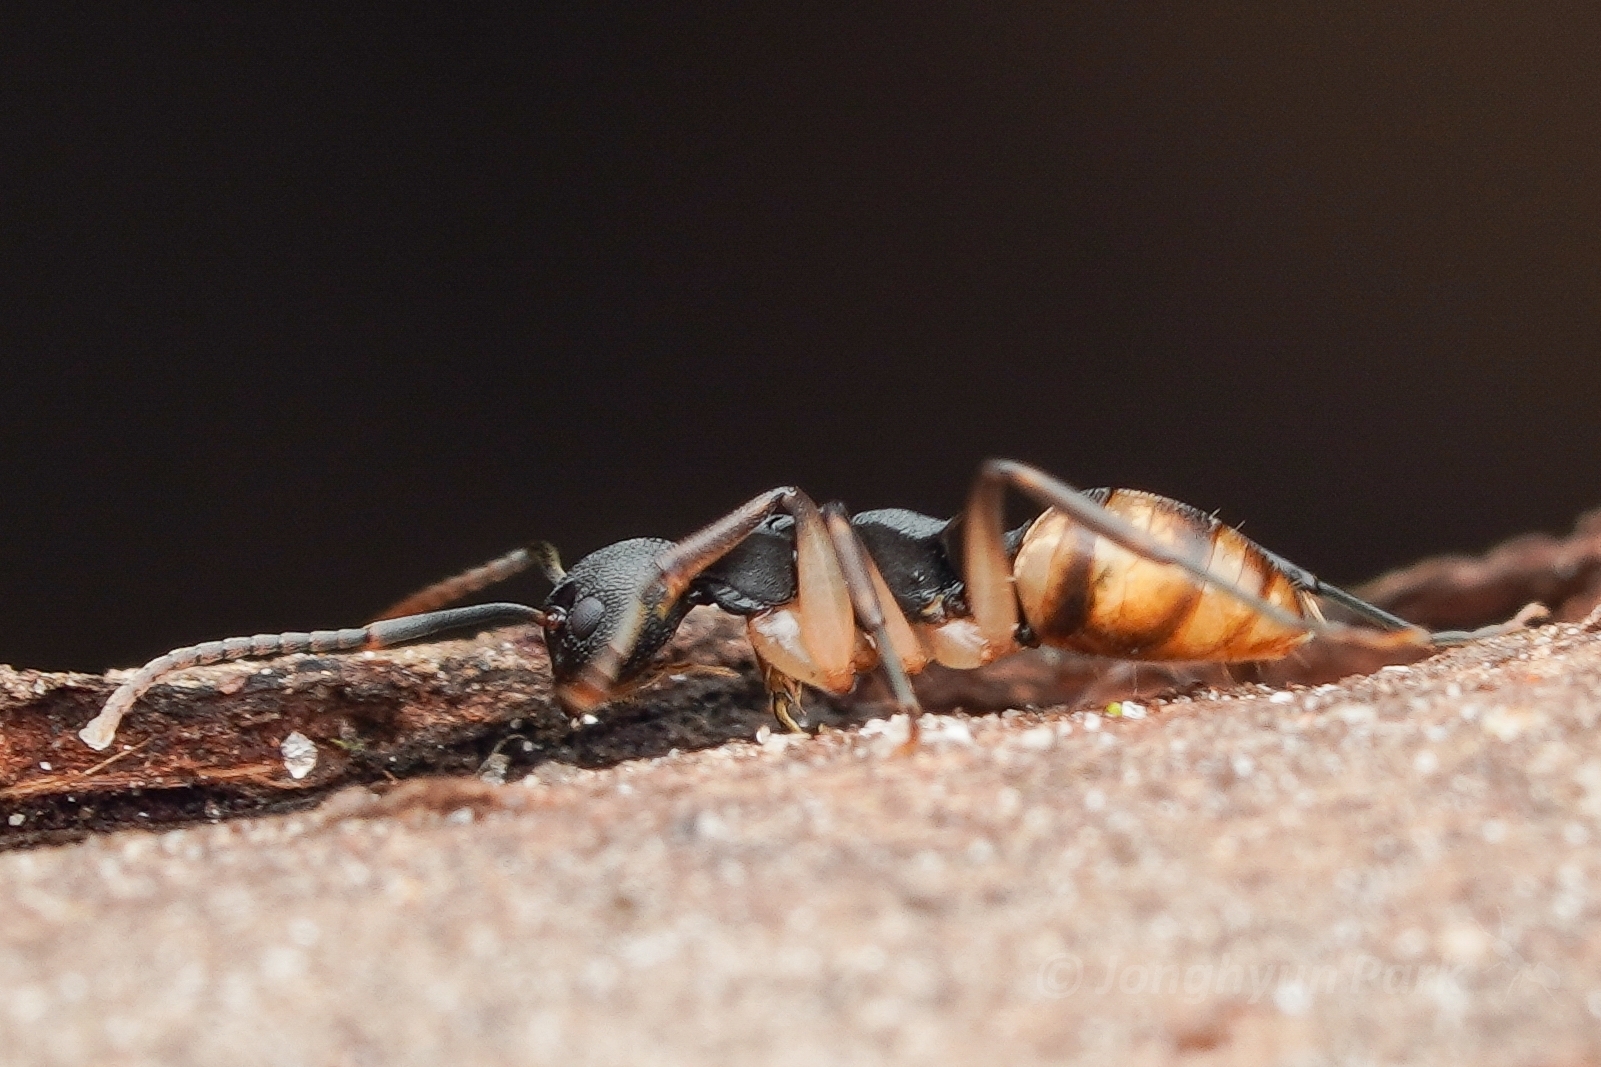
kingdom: Animalia
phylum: Arthropoda
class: Insecta
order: Hymenoptera
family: Formicidae
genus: Dolichoderus
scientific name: Dolichoderus laminatus
